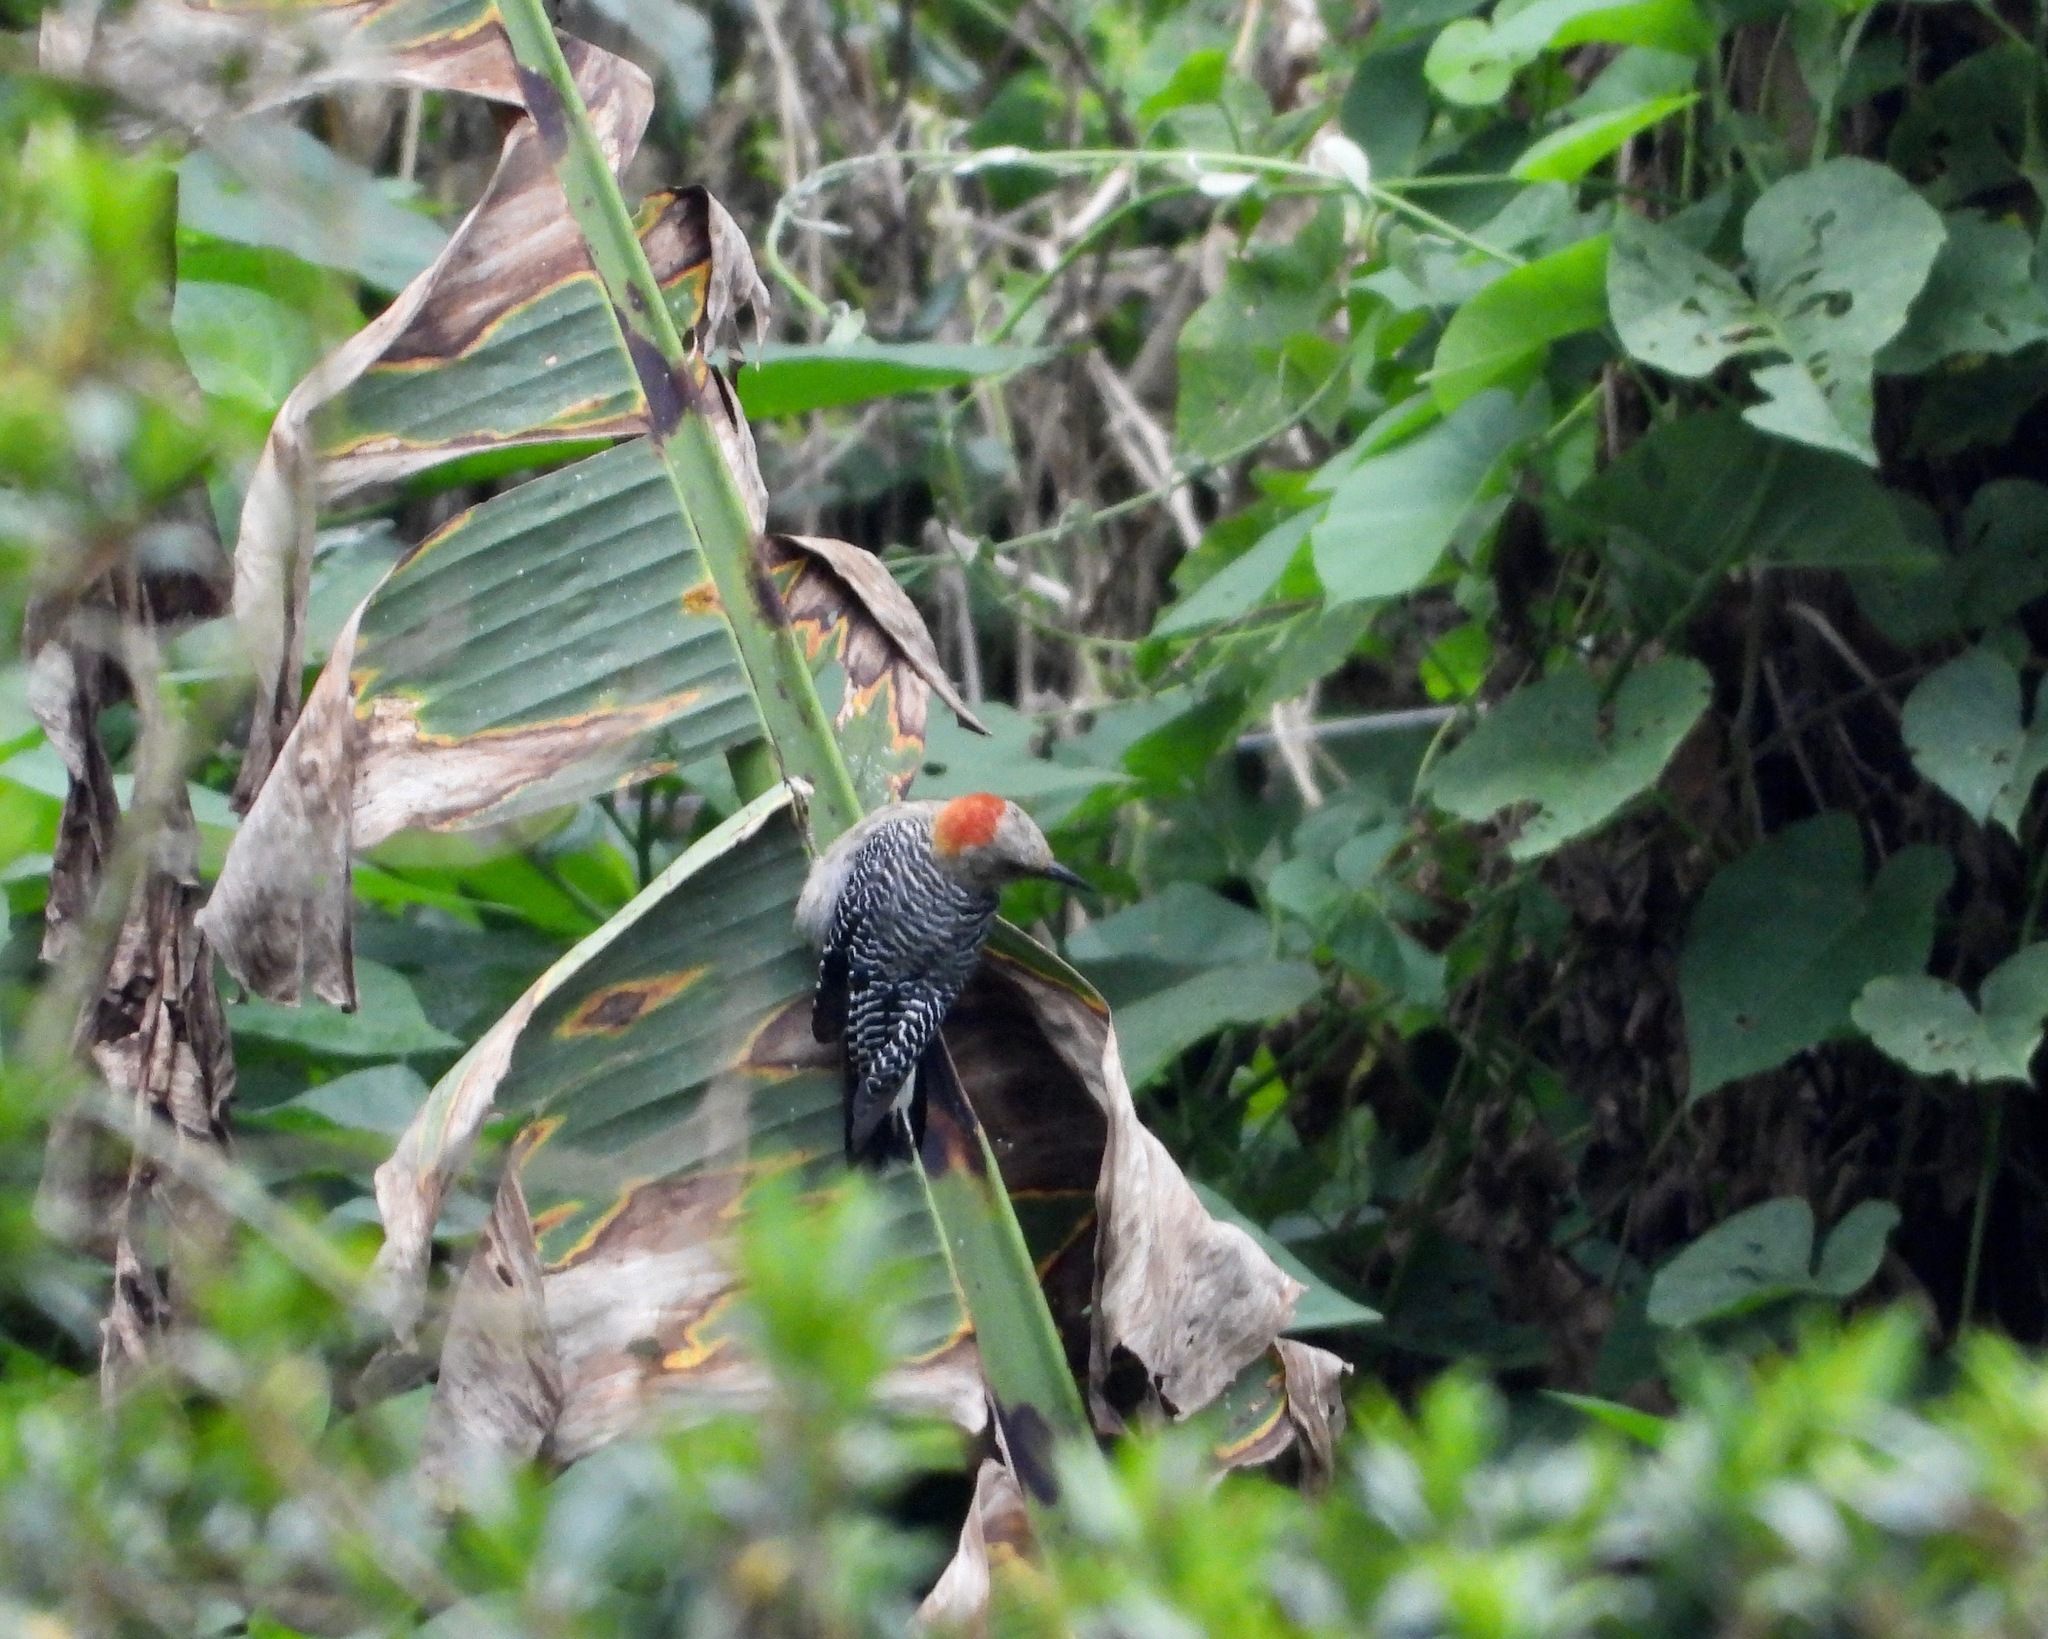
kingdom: Animalia
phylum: Chordata
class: Aves
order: Piciformes
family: Picidae
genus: Melanerpes
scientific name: Melanerpes santacruzi
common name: Velasquez's woodpecker
